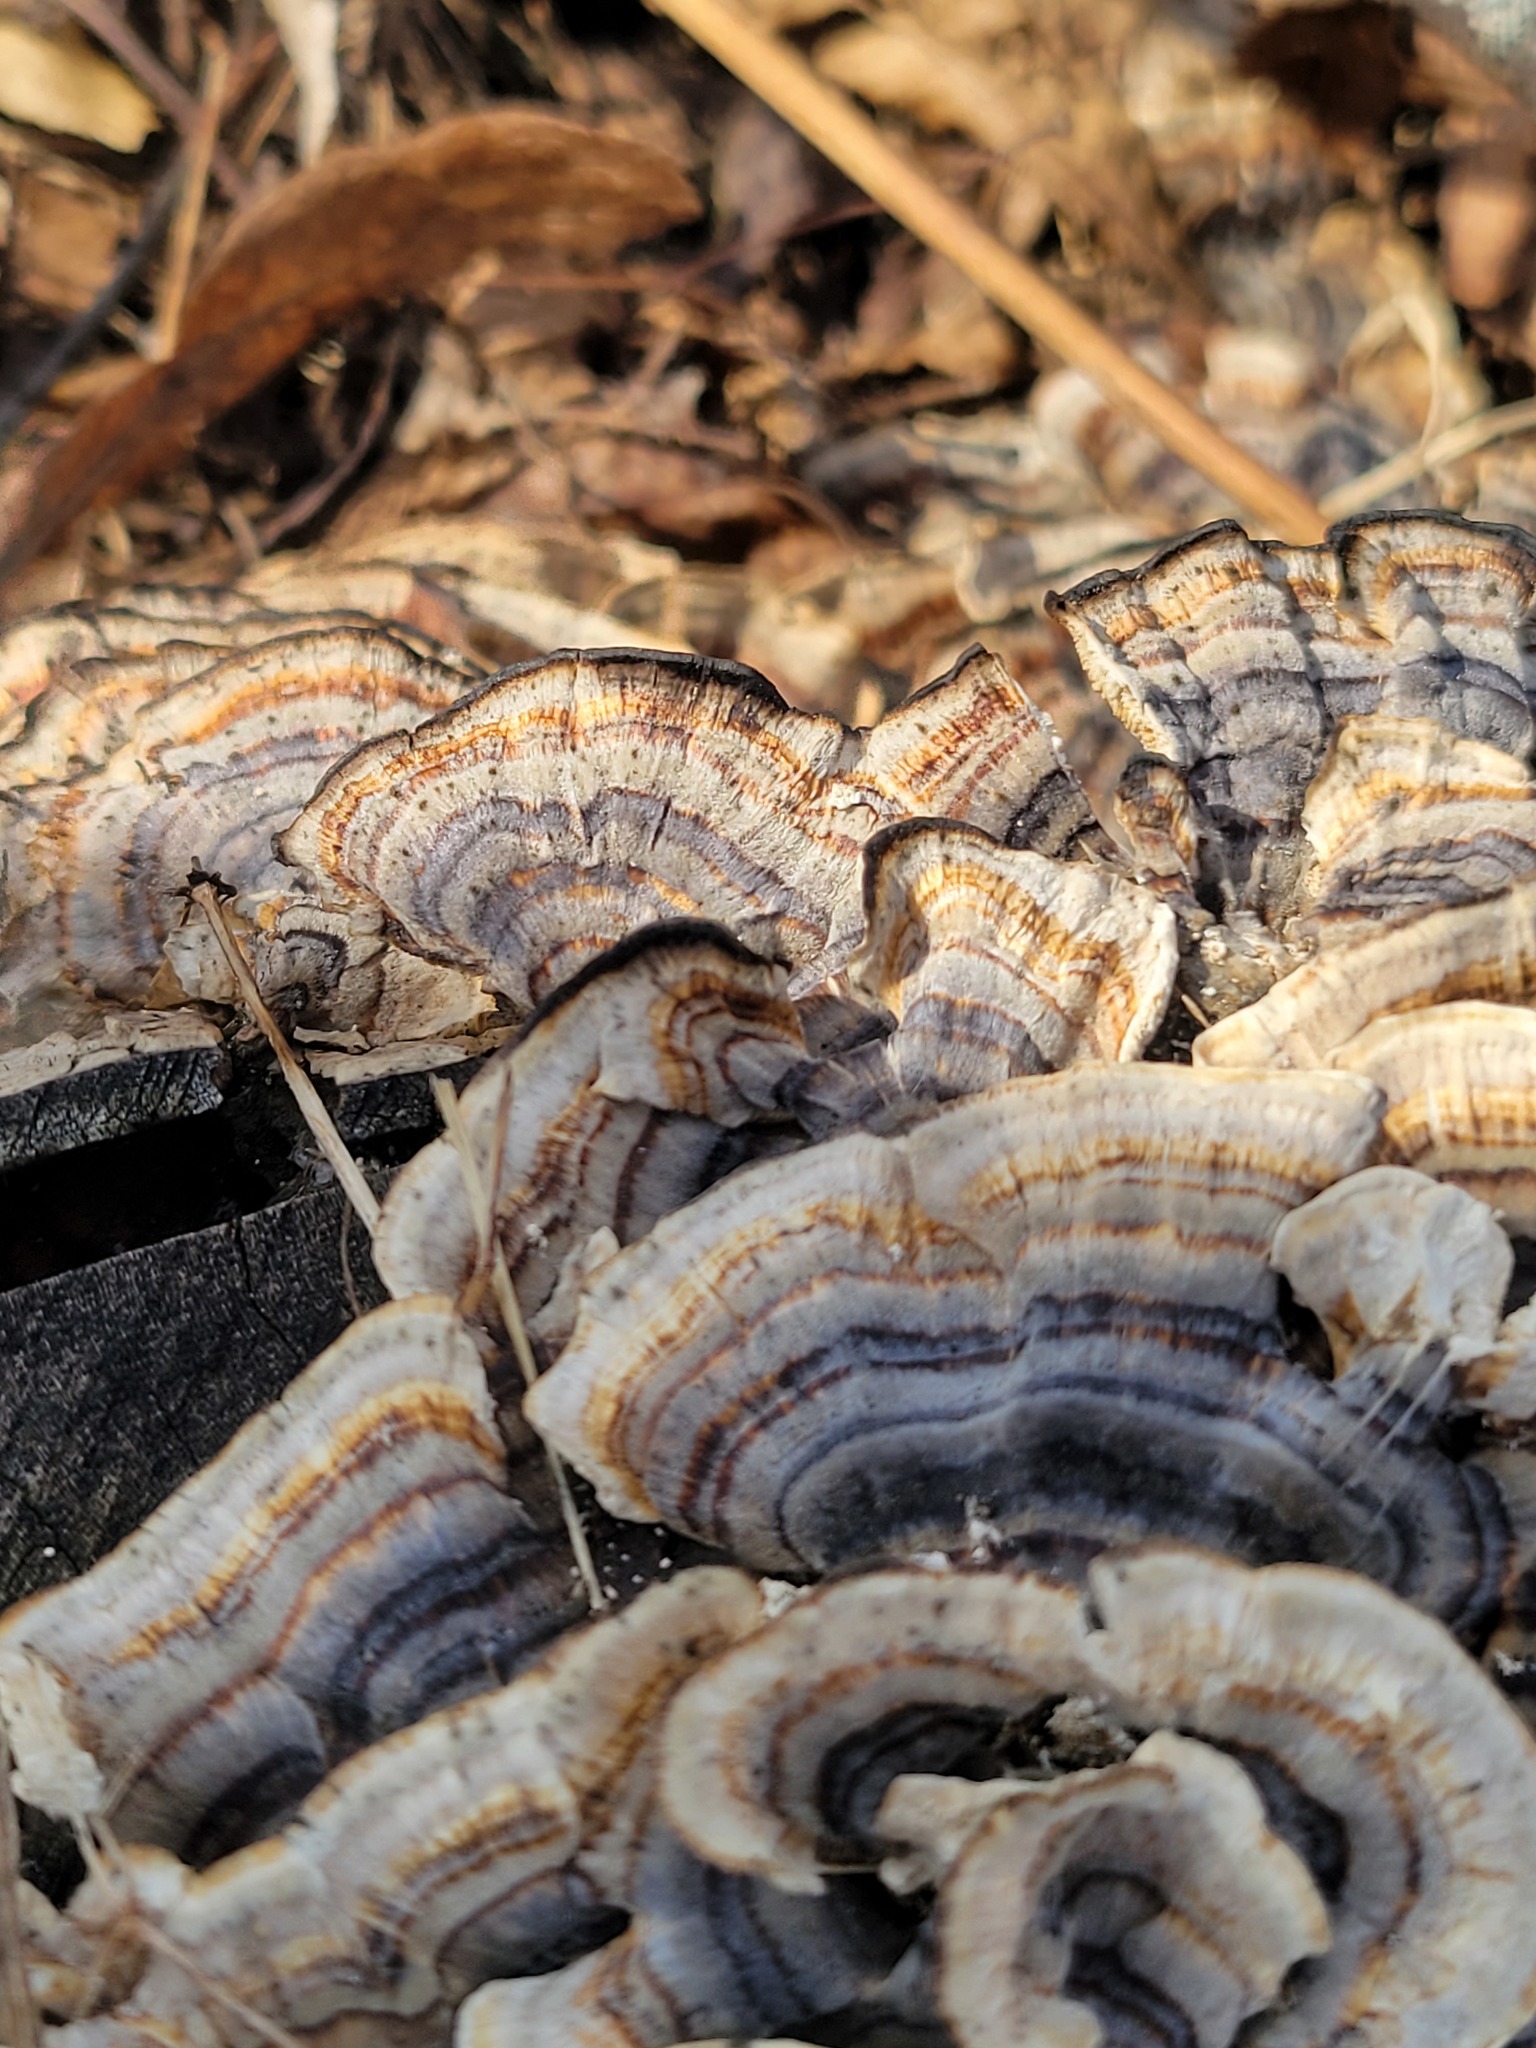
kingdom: Fungi
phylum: Basidiomycota
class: Agaricomycetes
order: Polyporales
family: Polyporaceae
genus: Trametes
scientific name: Trametes versicolor
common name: Turkeytail
